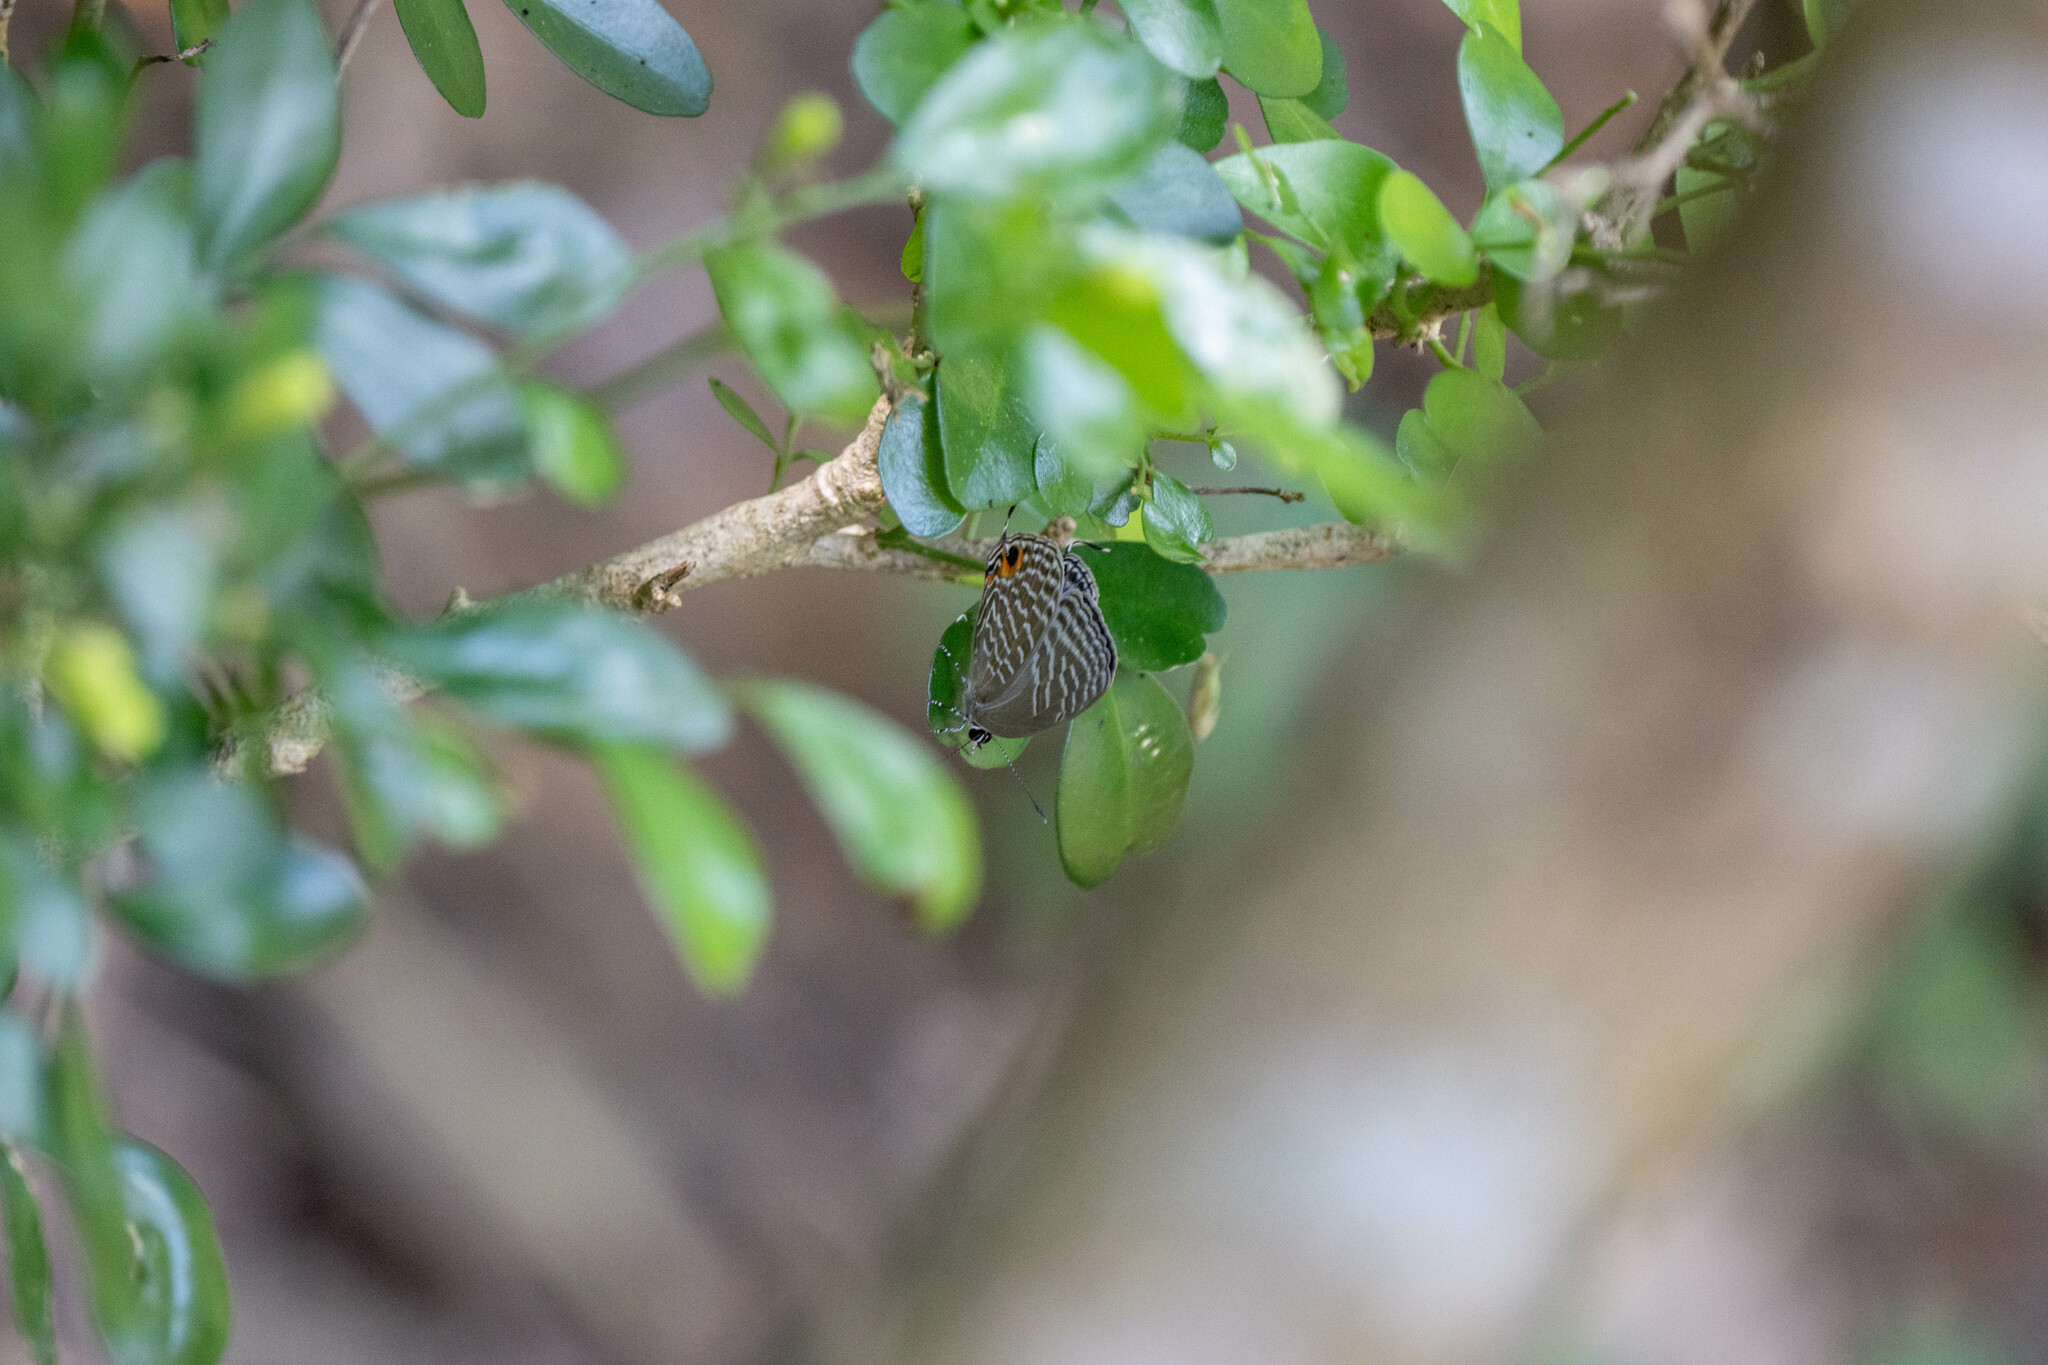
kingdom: Animalia
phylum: Arthropoda
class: Insecta
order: Lepidoptera
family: Lycaenidae
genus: Jamides
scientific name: Jamides alecto
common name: Metallic cerulean
